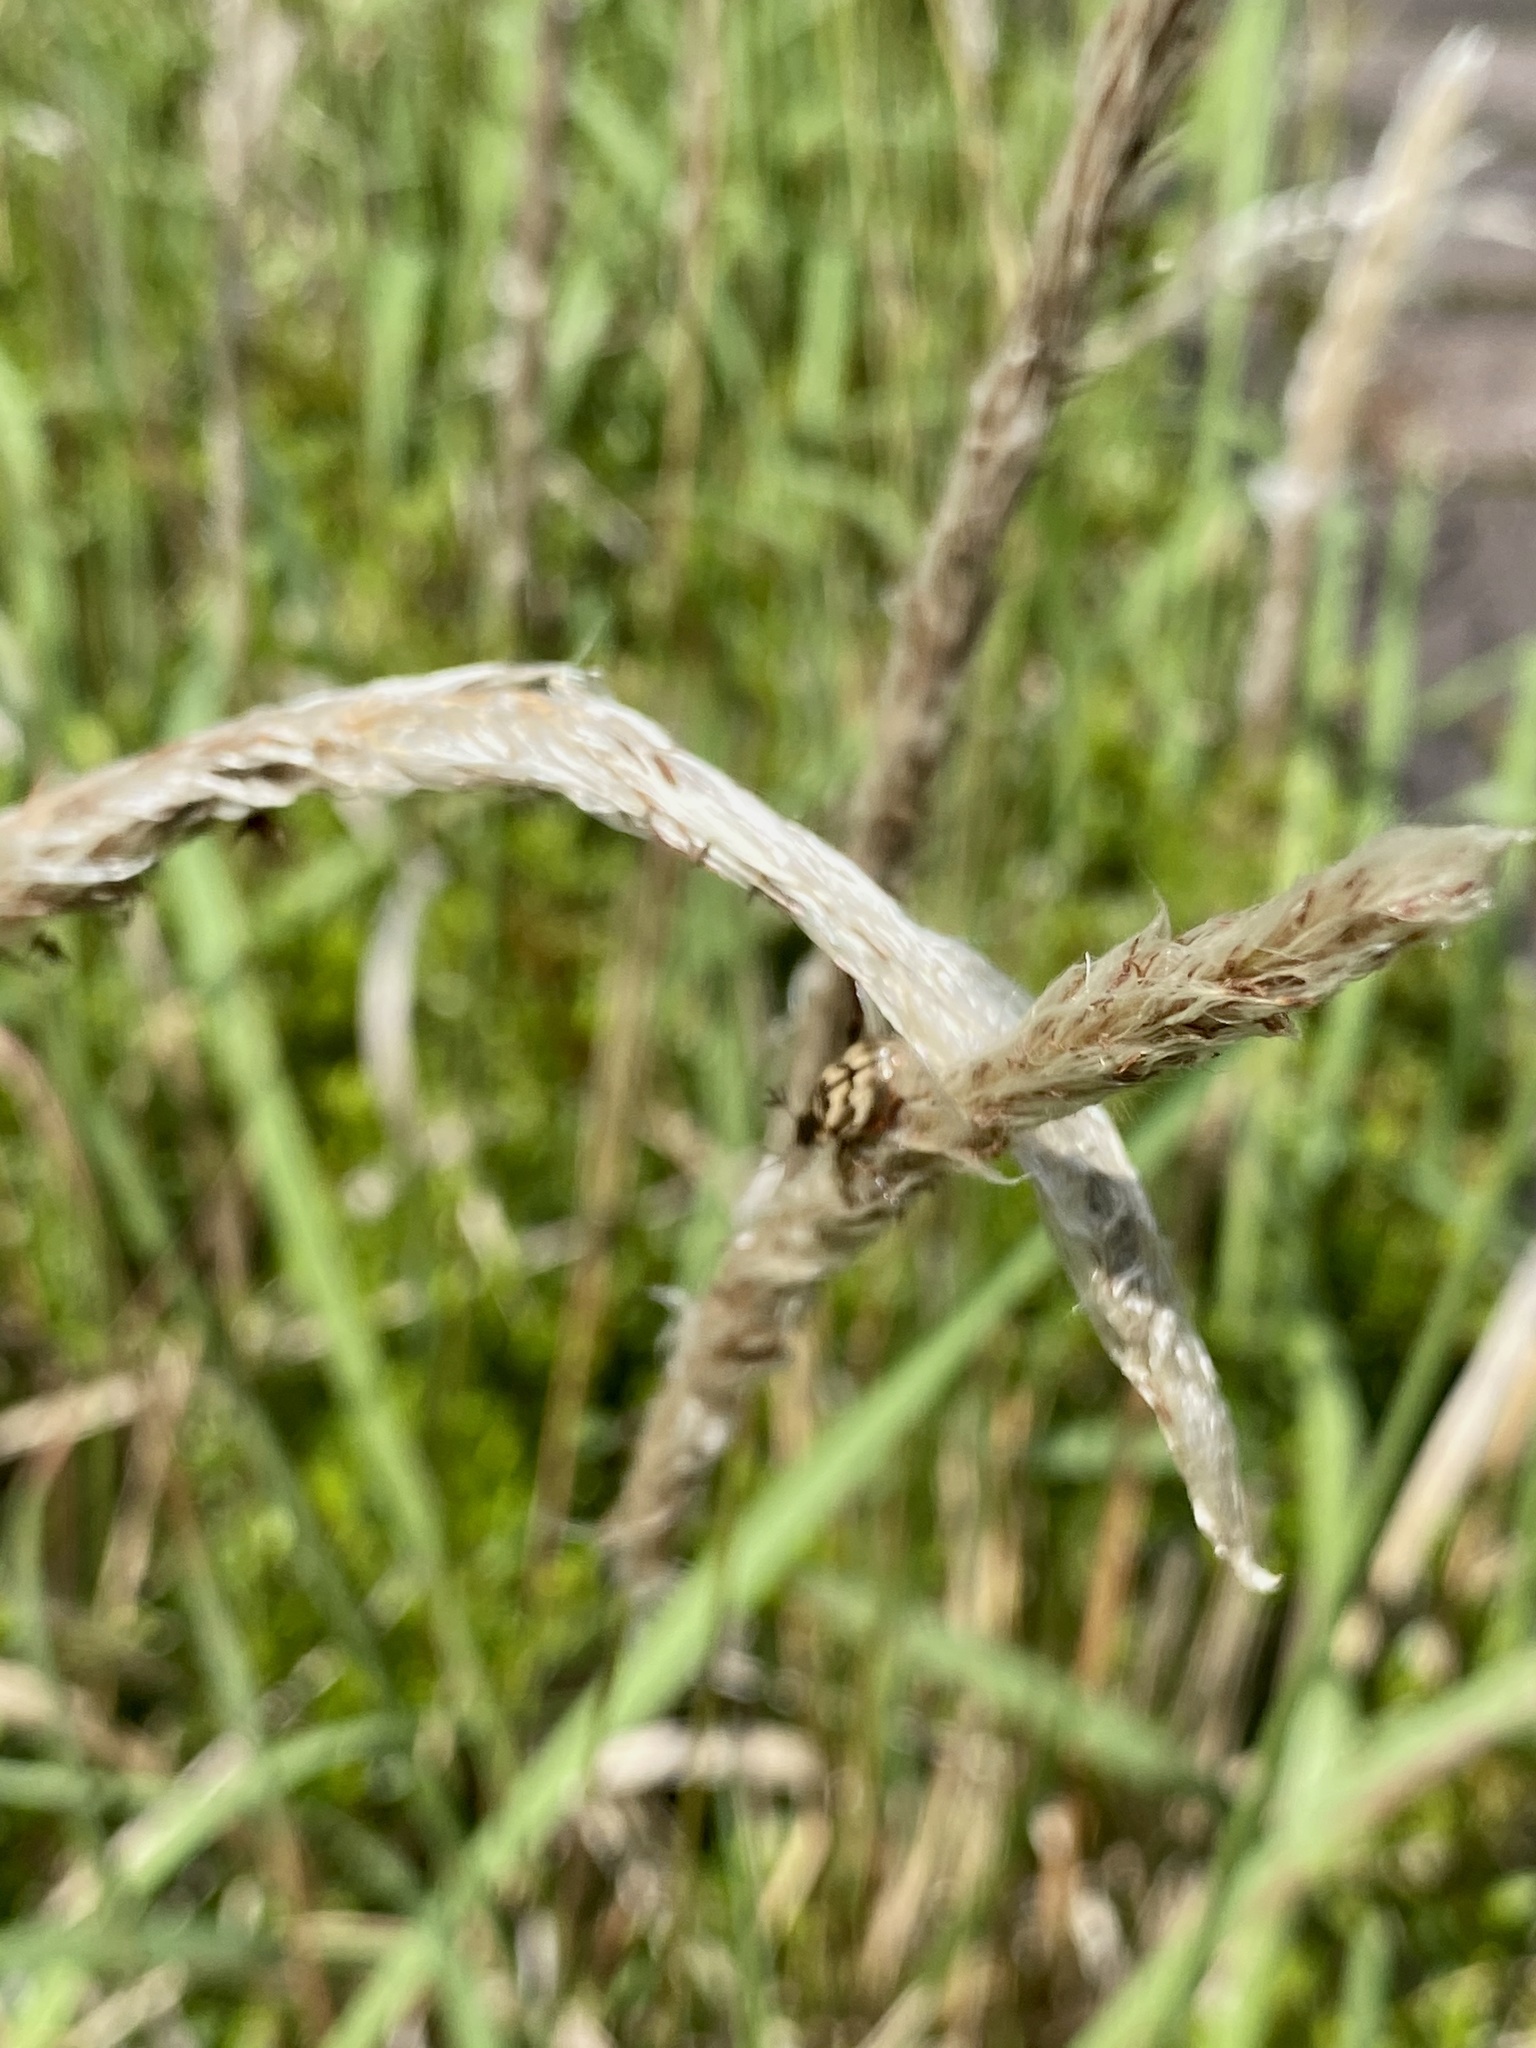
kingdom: Plantae
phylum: Tracheophyta
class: Liliopsida
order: Poales
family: Poaceae
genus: Imperata
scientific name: Imperata cylindrica
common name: Cogongrass
